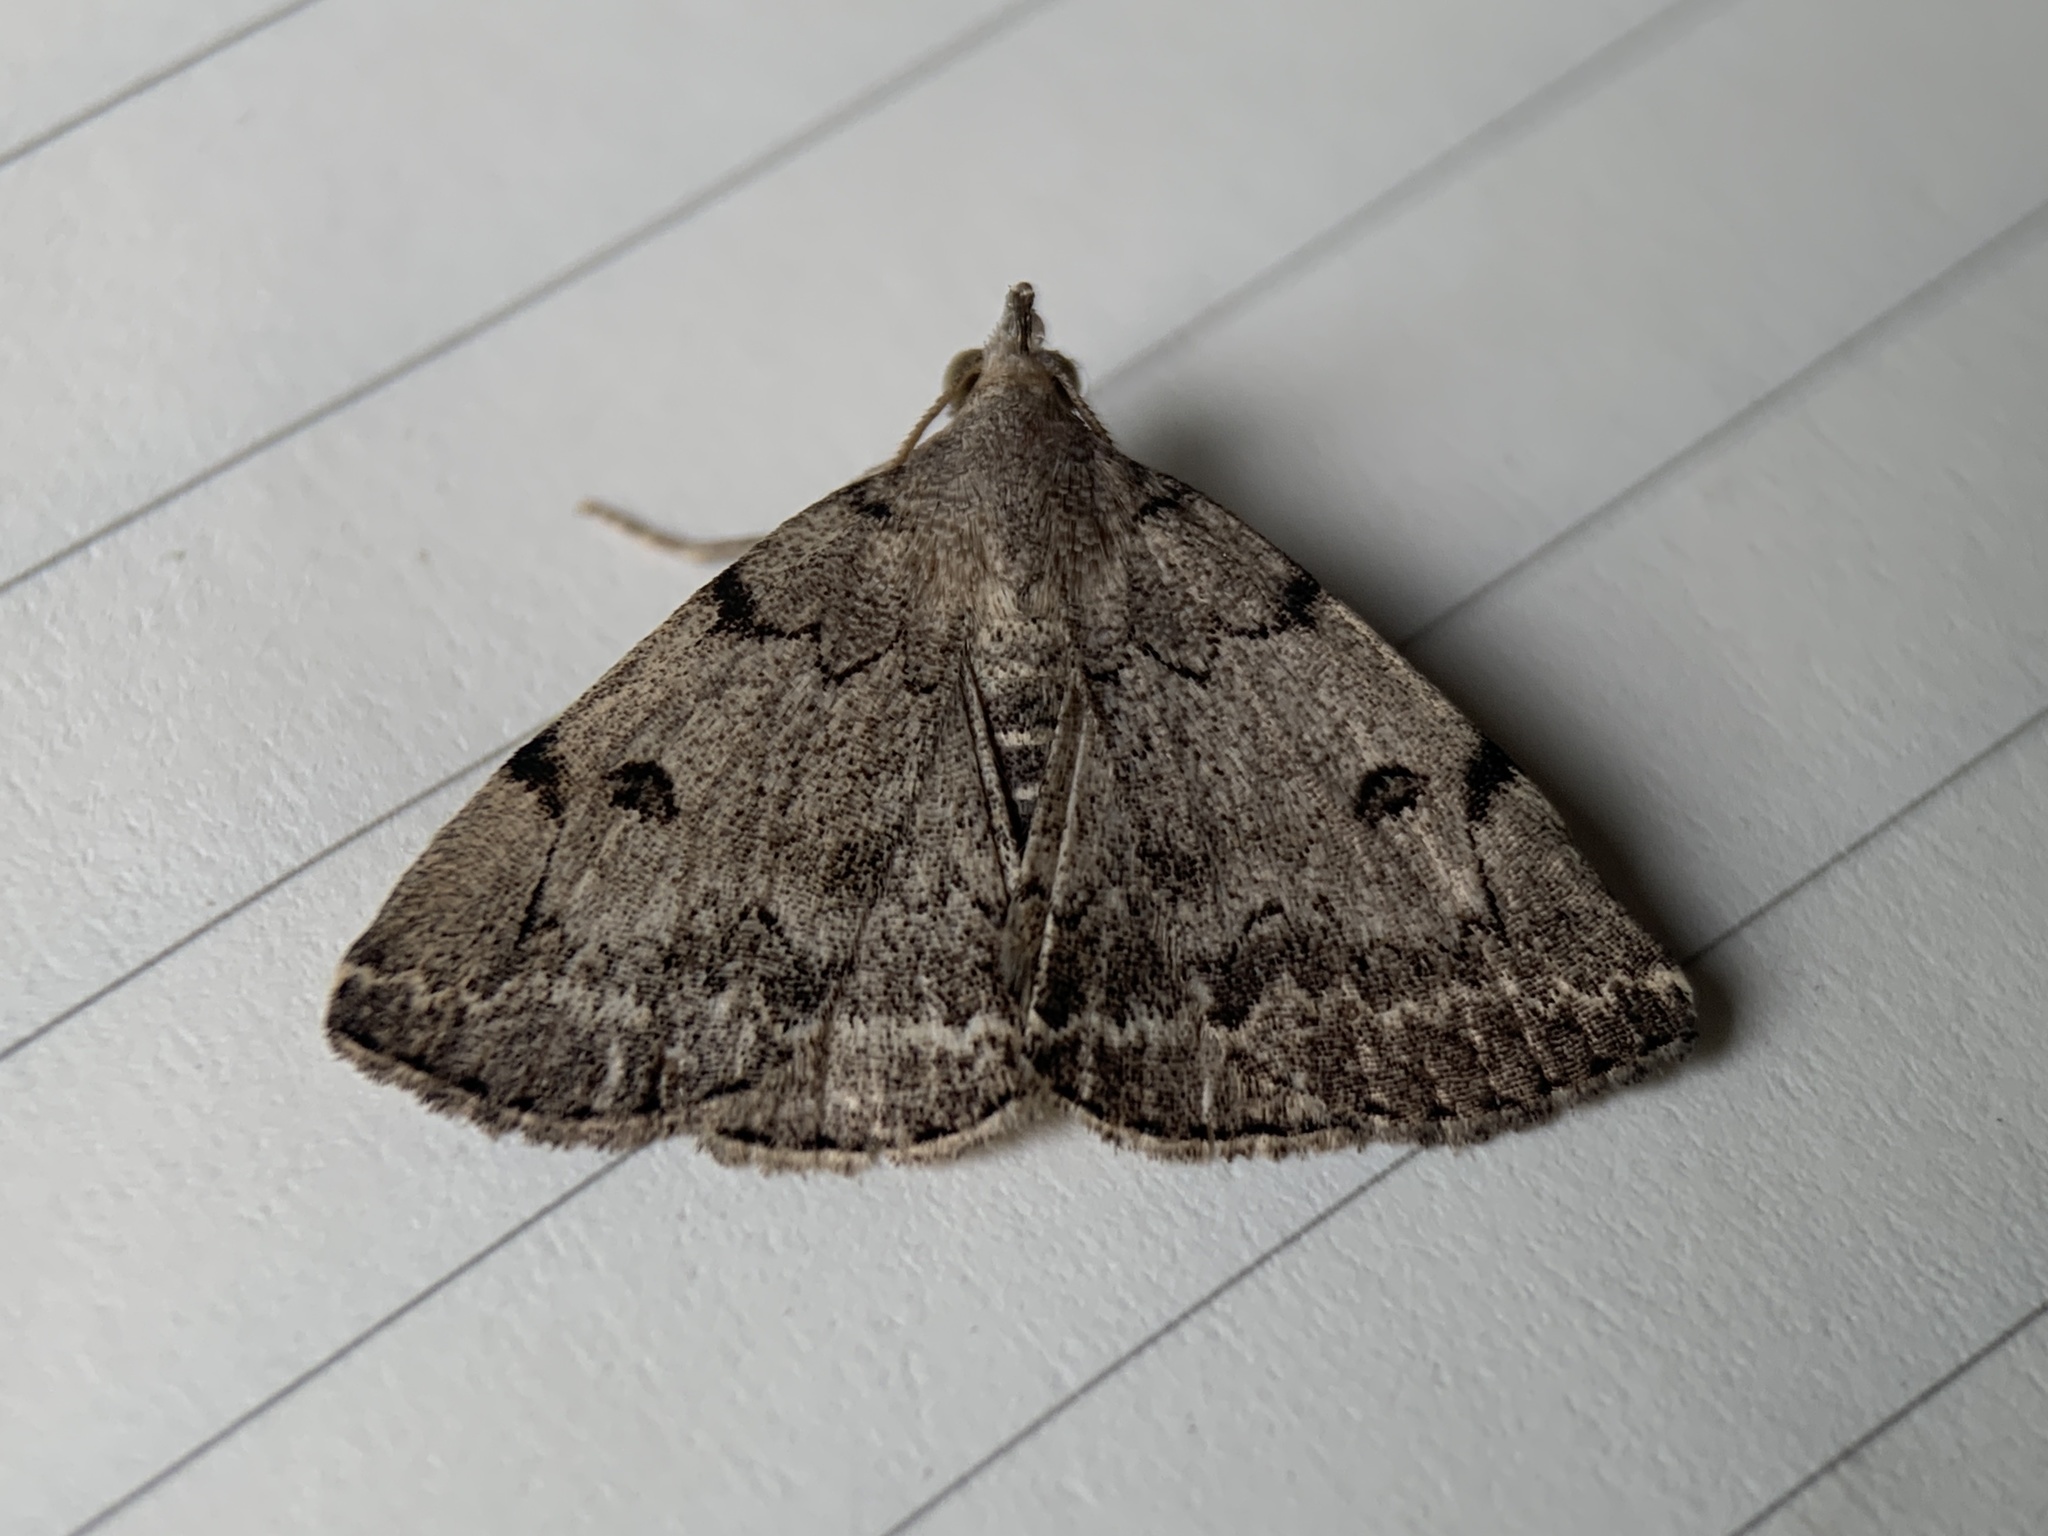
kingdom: Animalia
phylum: Arthropoda
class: Insecta
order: Lepidoptera
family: Erebidae
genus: Zanclognatha
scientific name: Zanclognatha theralis
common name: Flagged fan-foot
